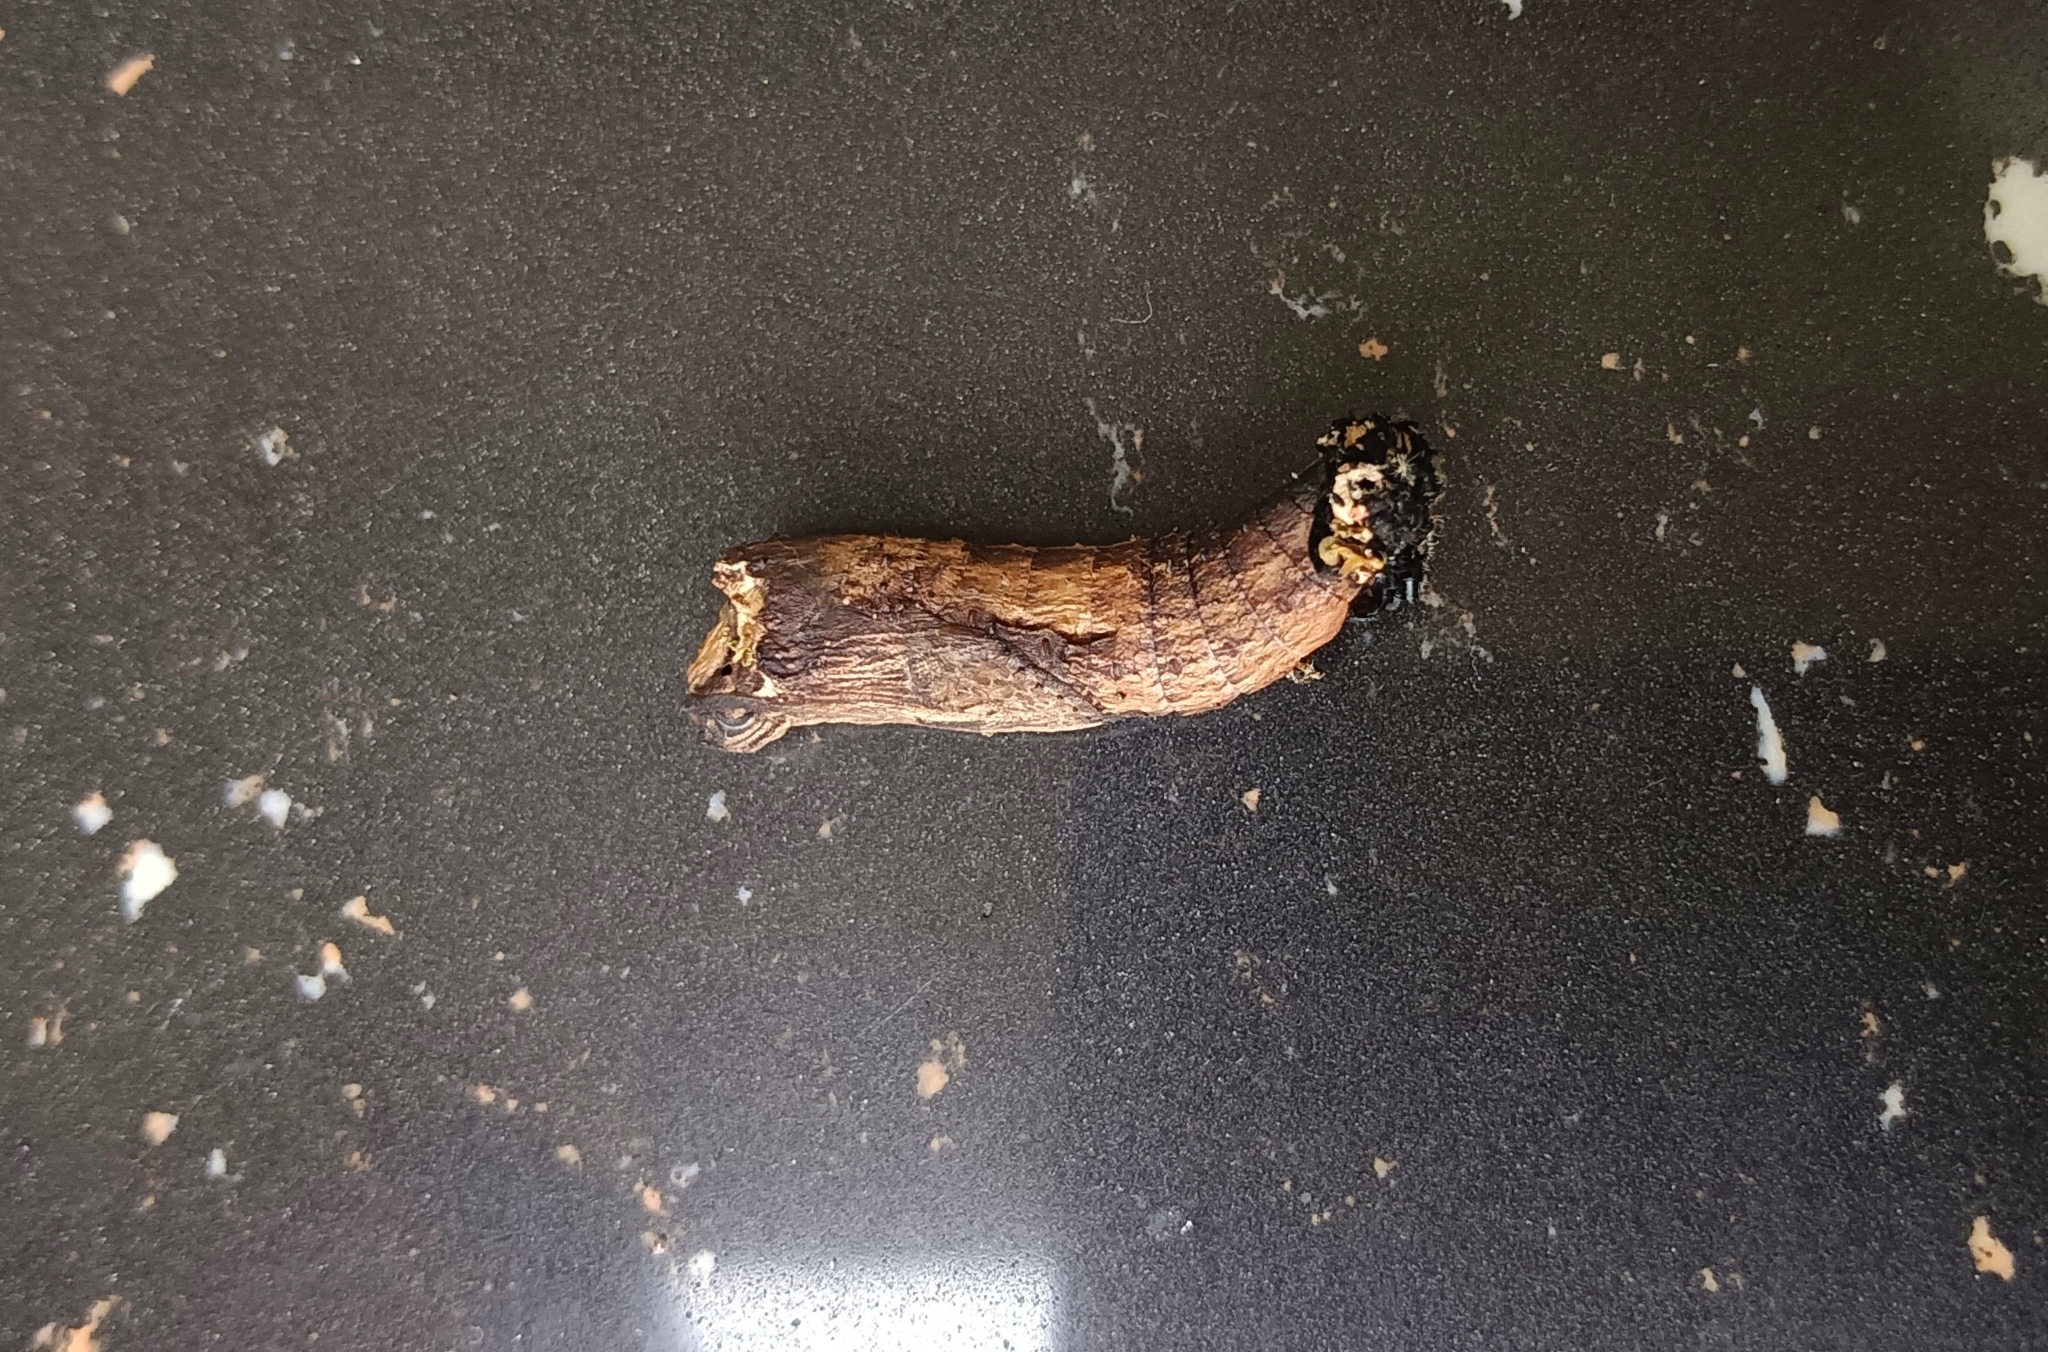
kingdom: Animalia
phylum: Arthropoda
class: Insecta
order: Lepidoptera
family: Papilionidae
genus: Chilasa
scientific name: Chilasa clytia
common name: Common mime
